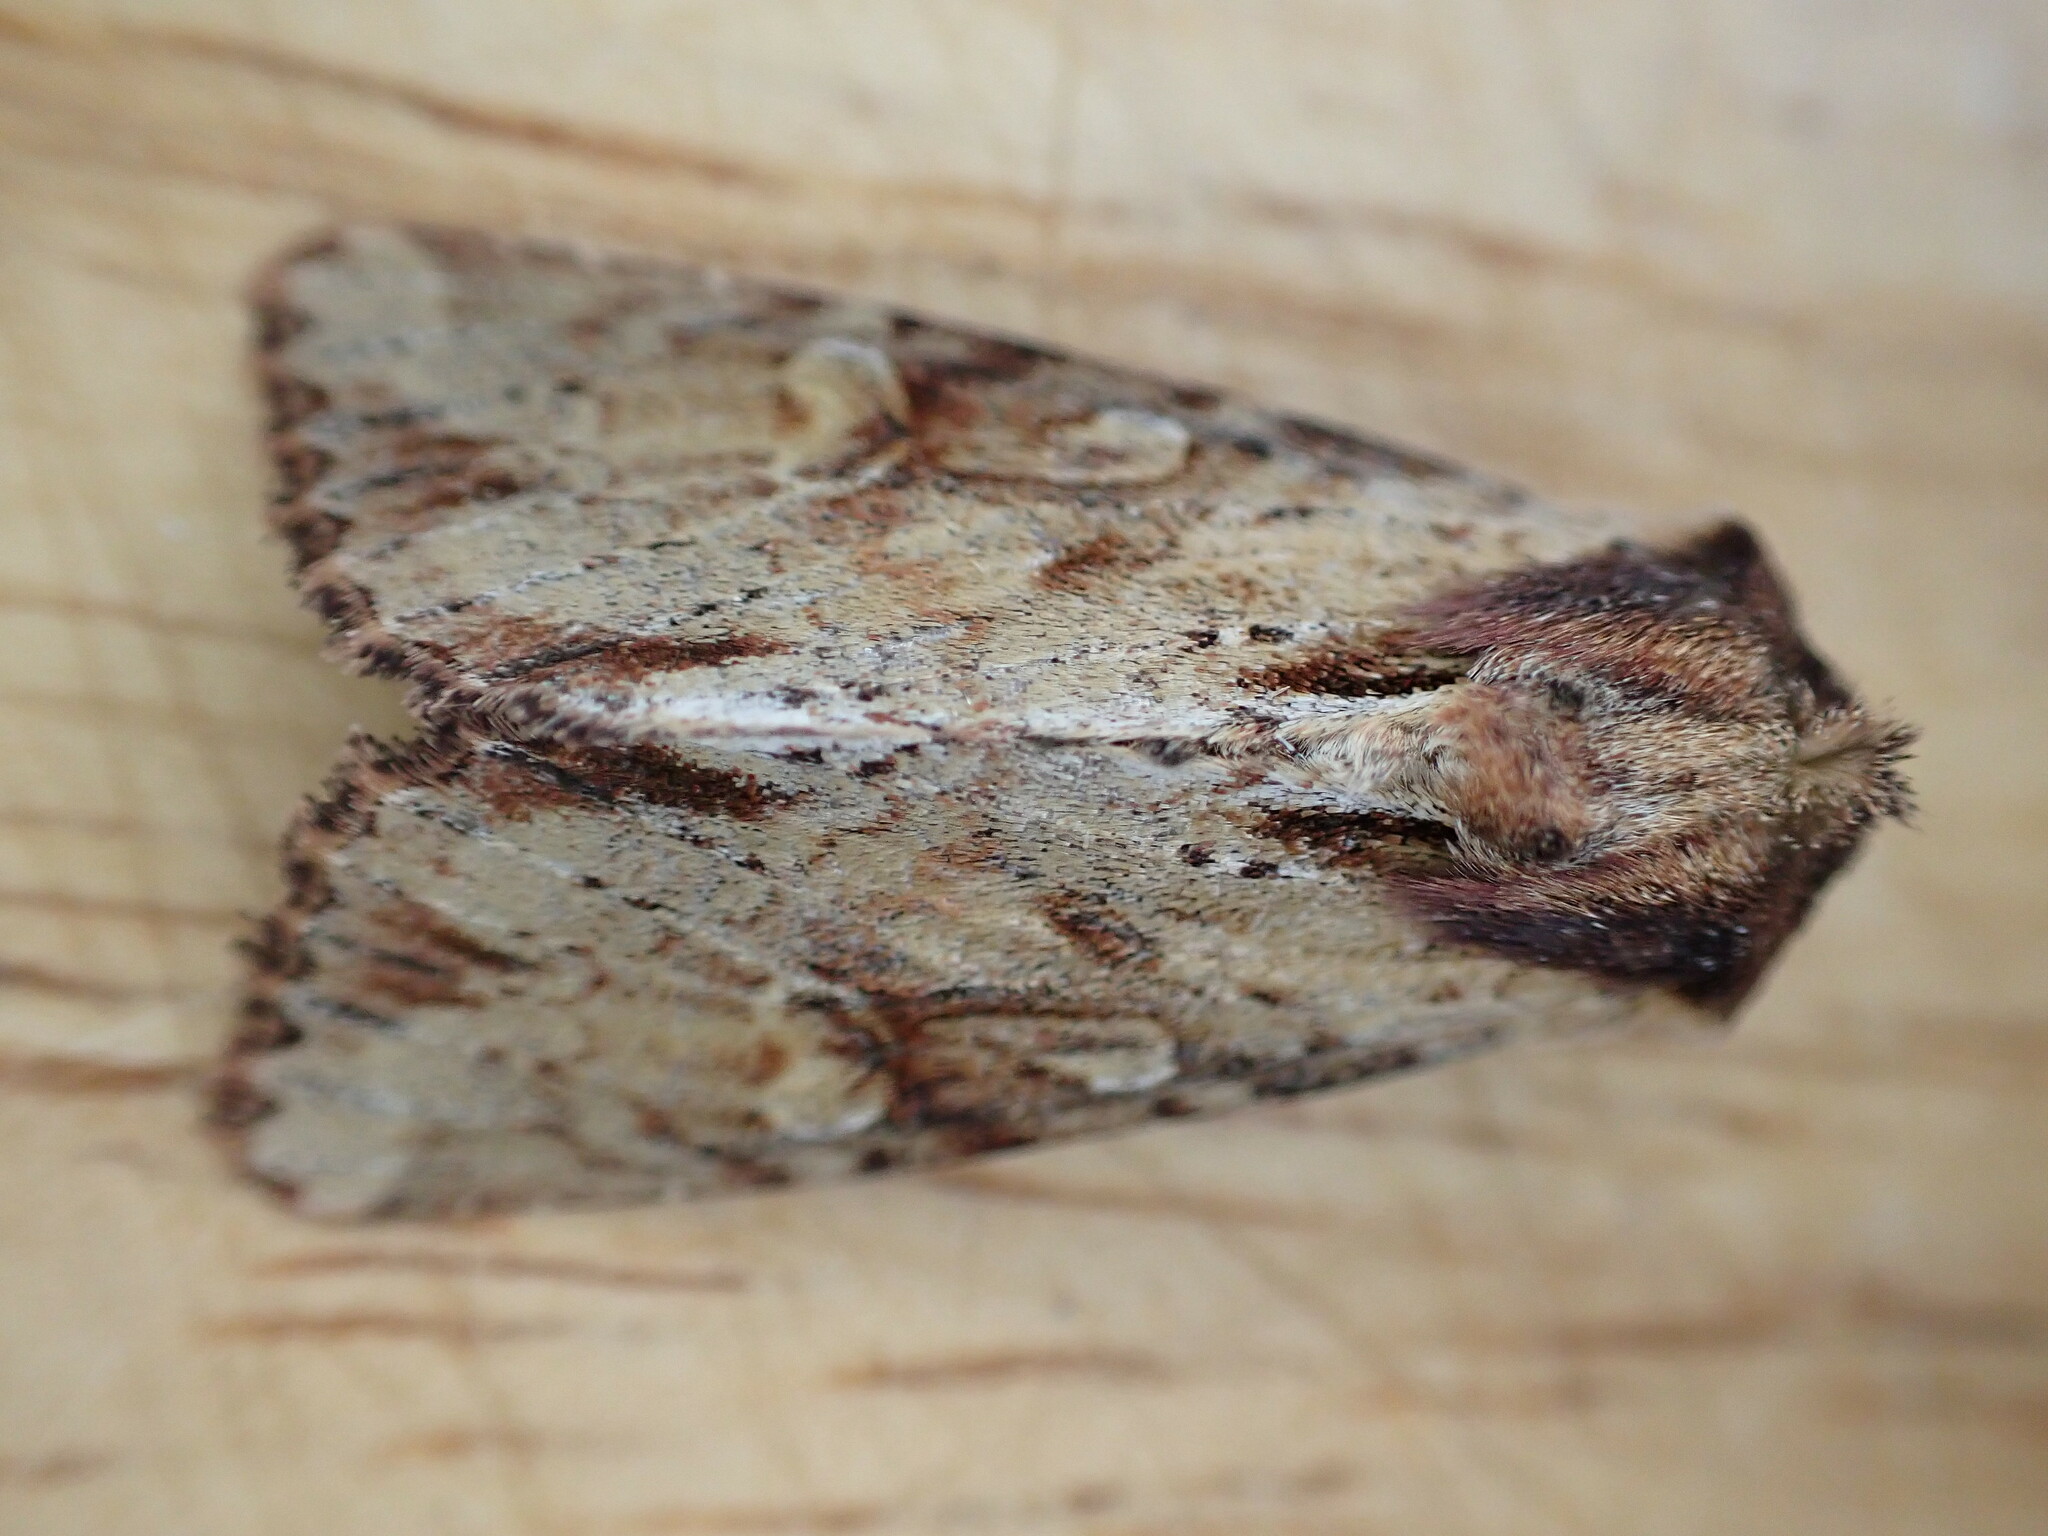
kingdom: Animalia
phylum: Arthropoda
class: Insecta
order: Lepidoptera
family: Noctuidae
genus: Apamea
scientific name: Apamea crenata
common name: Clouded-bordered brindle
